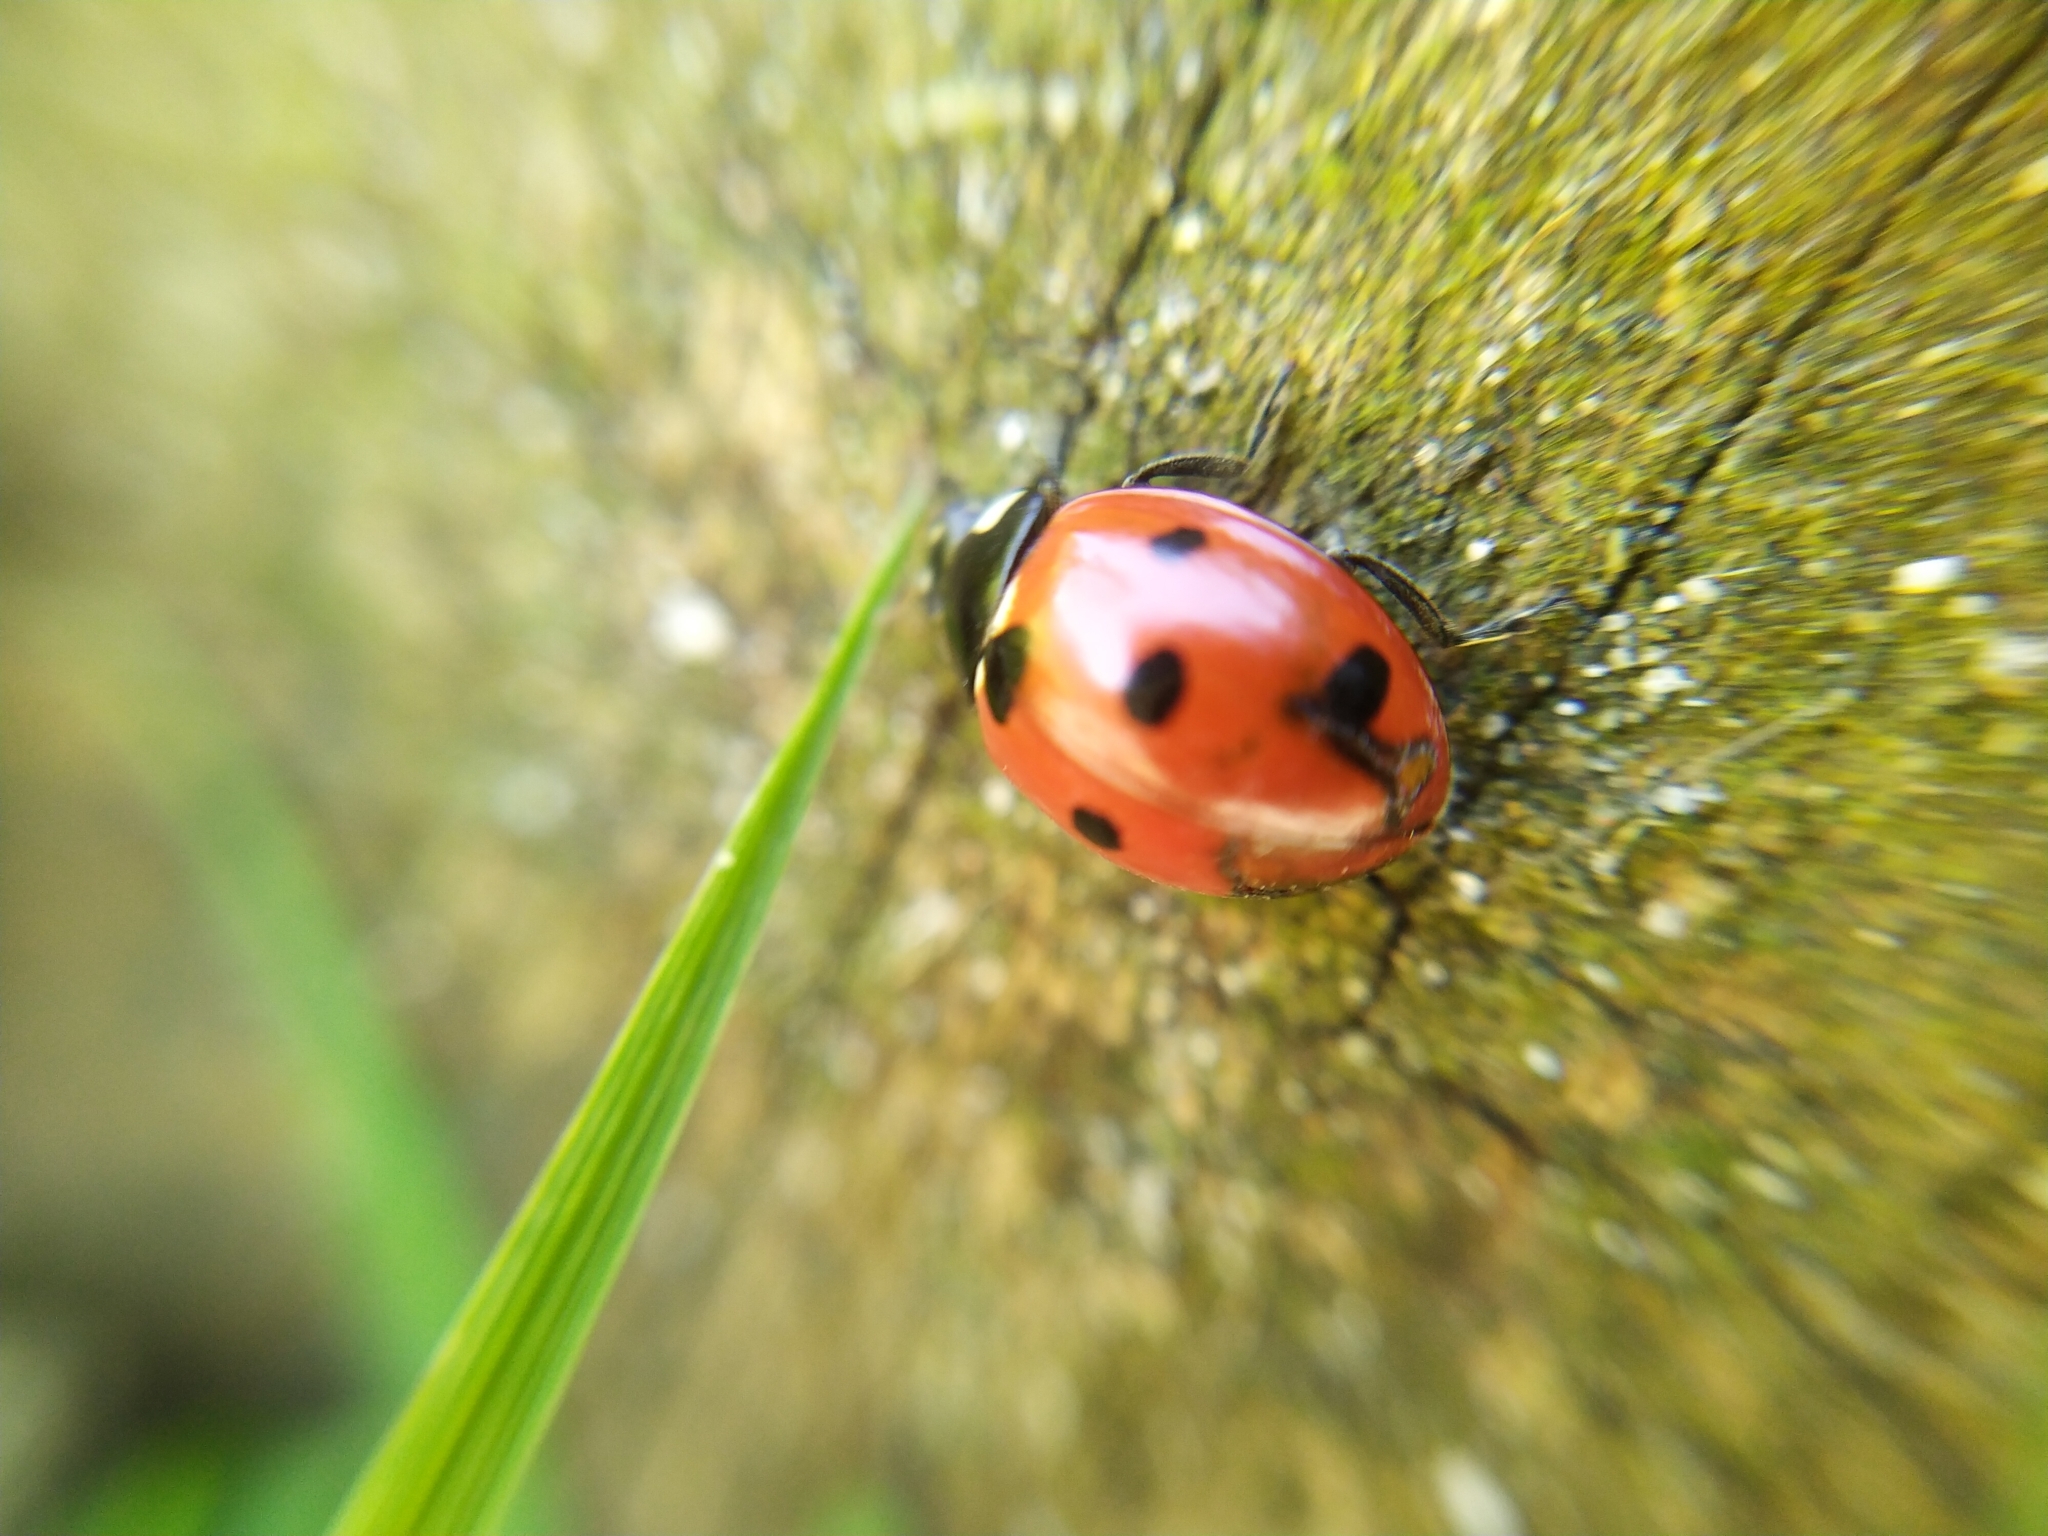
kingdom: Animalia
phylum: Arthropoda
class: Insecta
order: Coleoptera
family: Coccinellidae
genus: Coccinella
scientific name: Coccinella septempunctata
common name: Sevenspotted lady beetle
